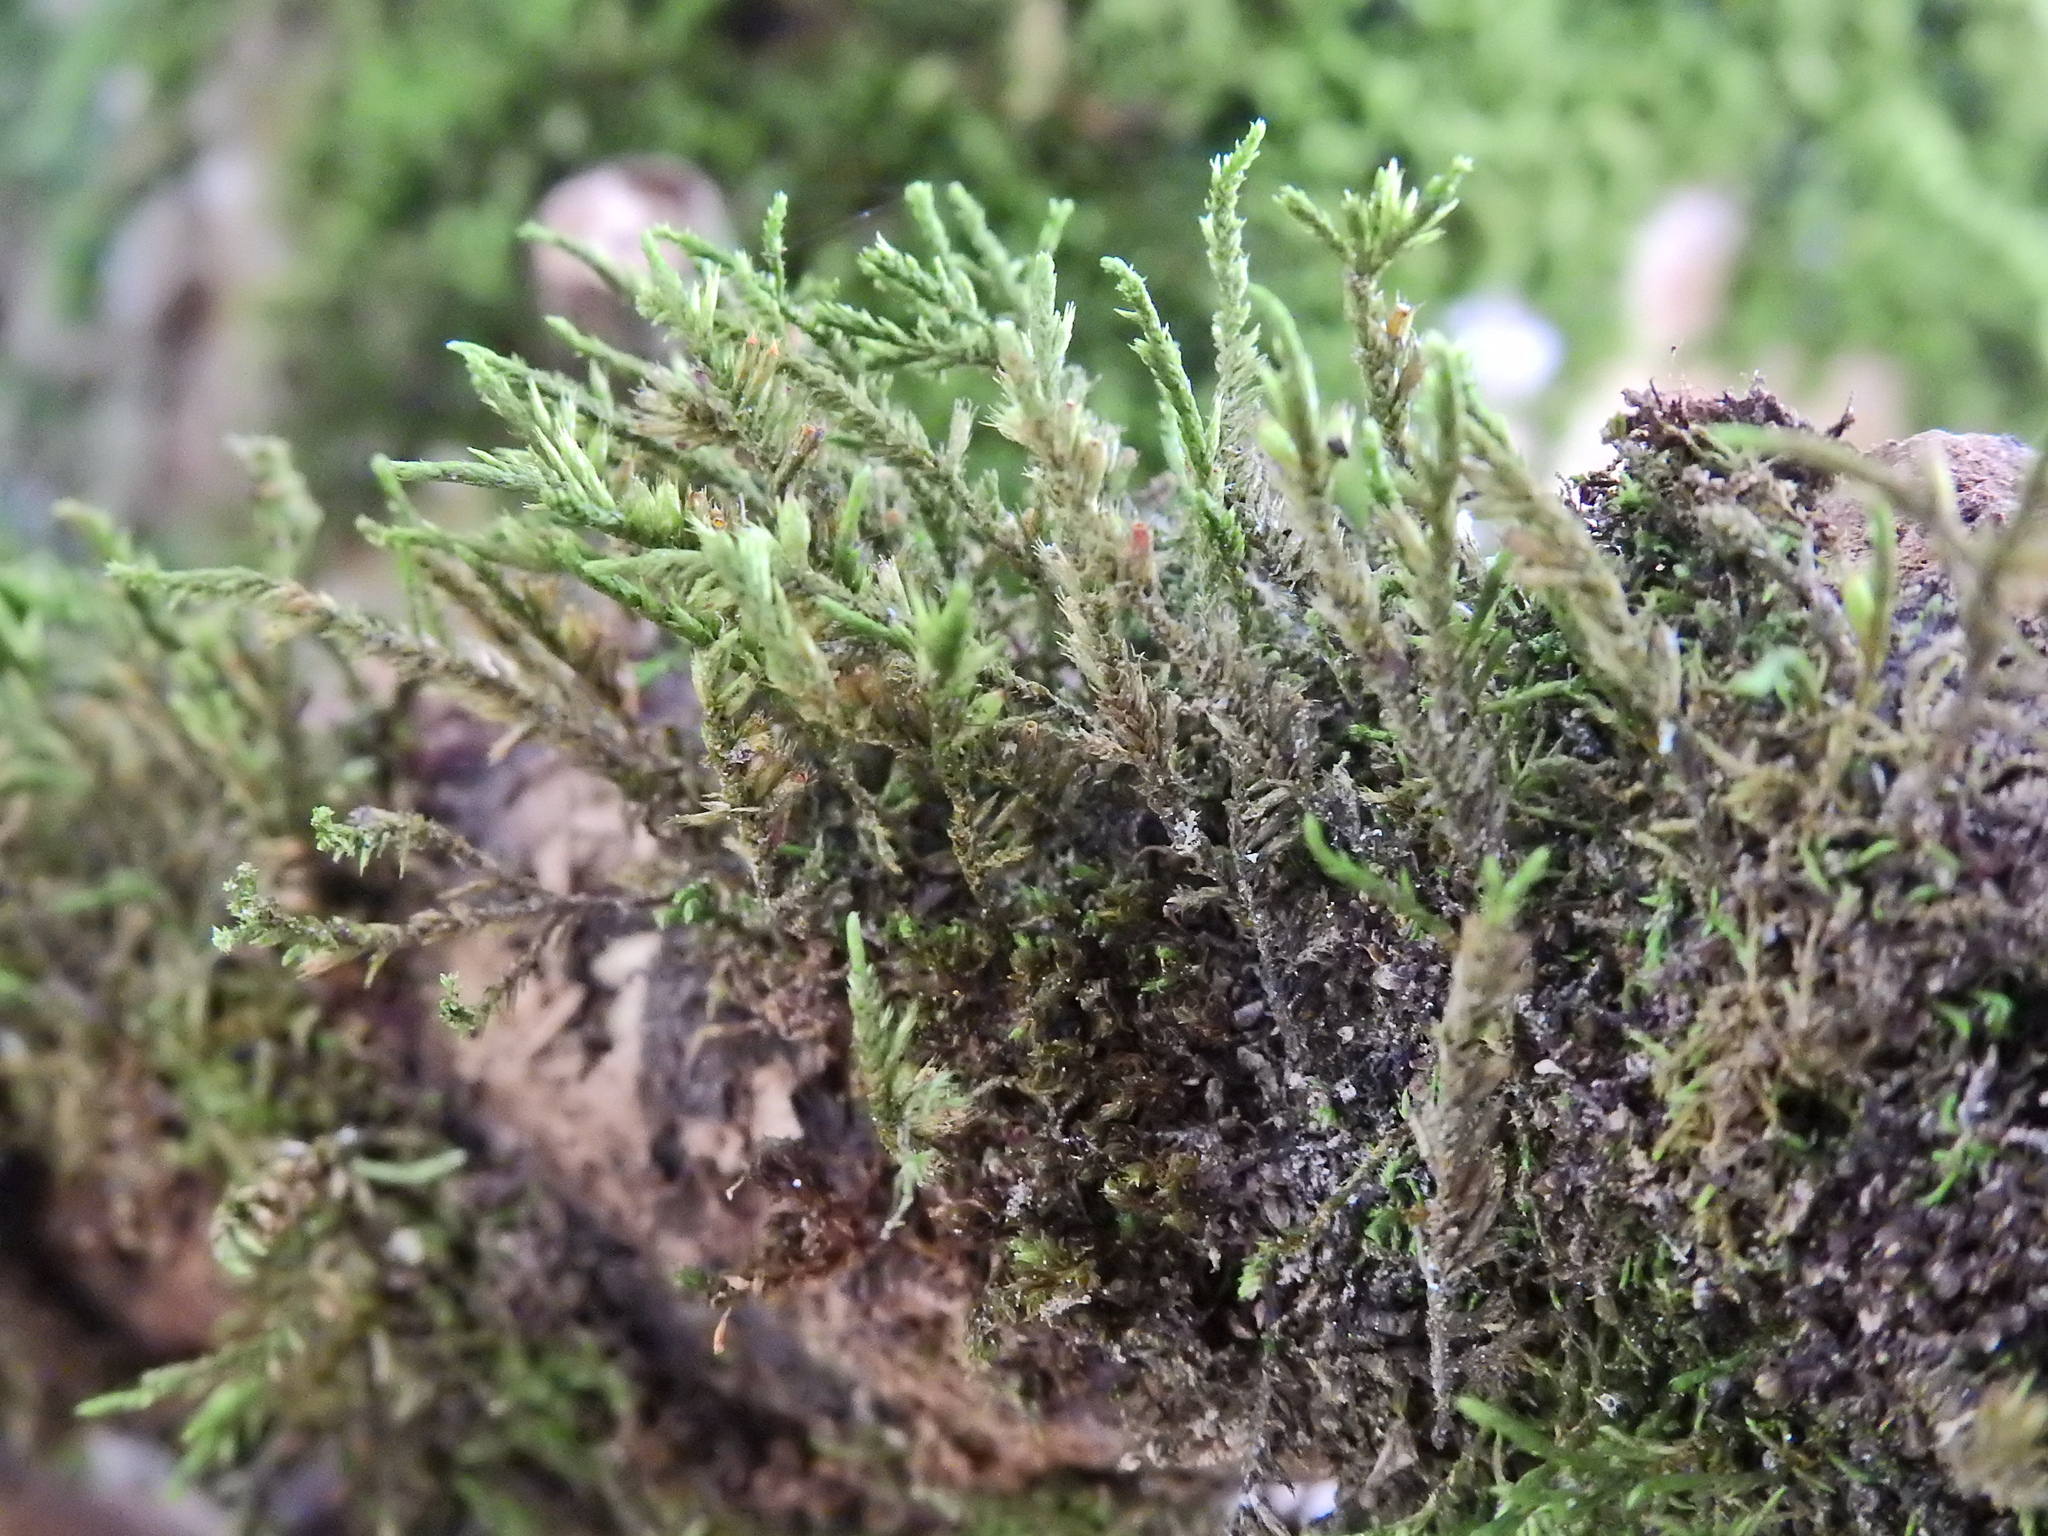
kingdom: Plantae
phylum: Bryophyta
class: Bryopsida
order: Hypnales
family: Cryphaeaceae
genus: Cryphaea
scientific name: Cryphaea heteromalla
